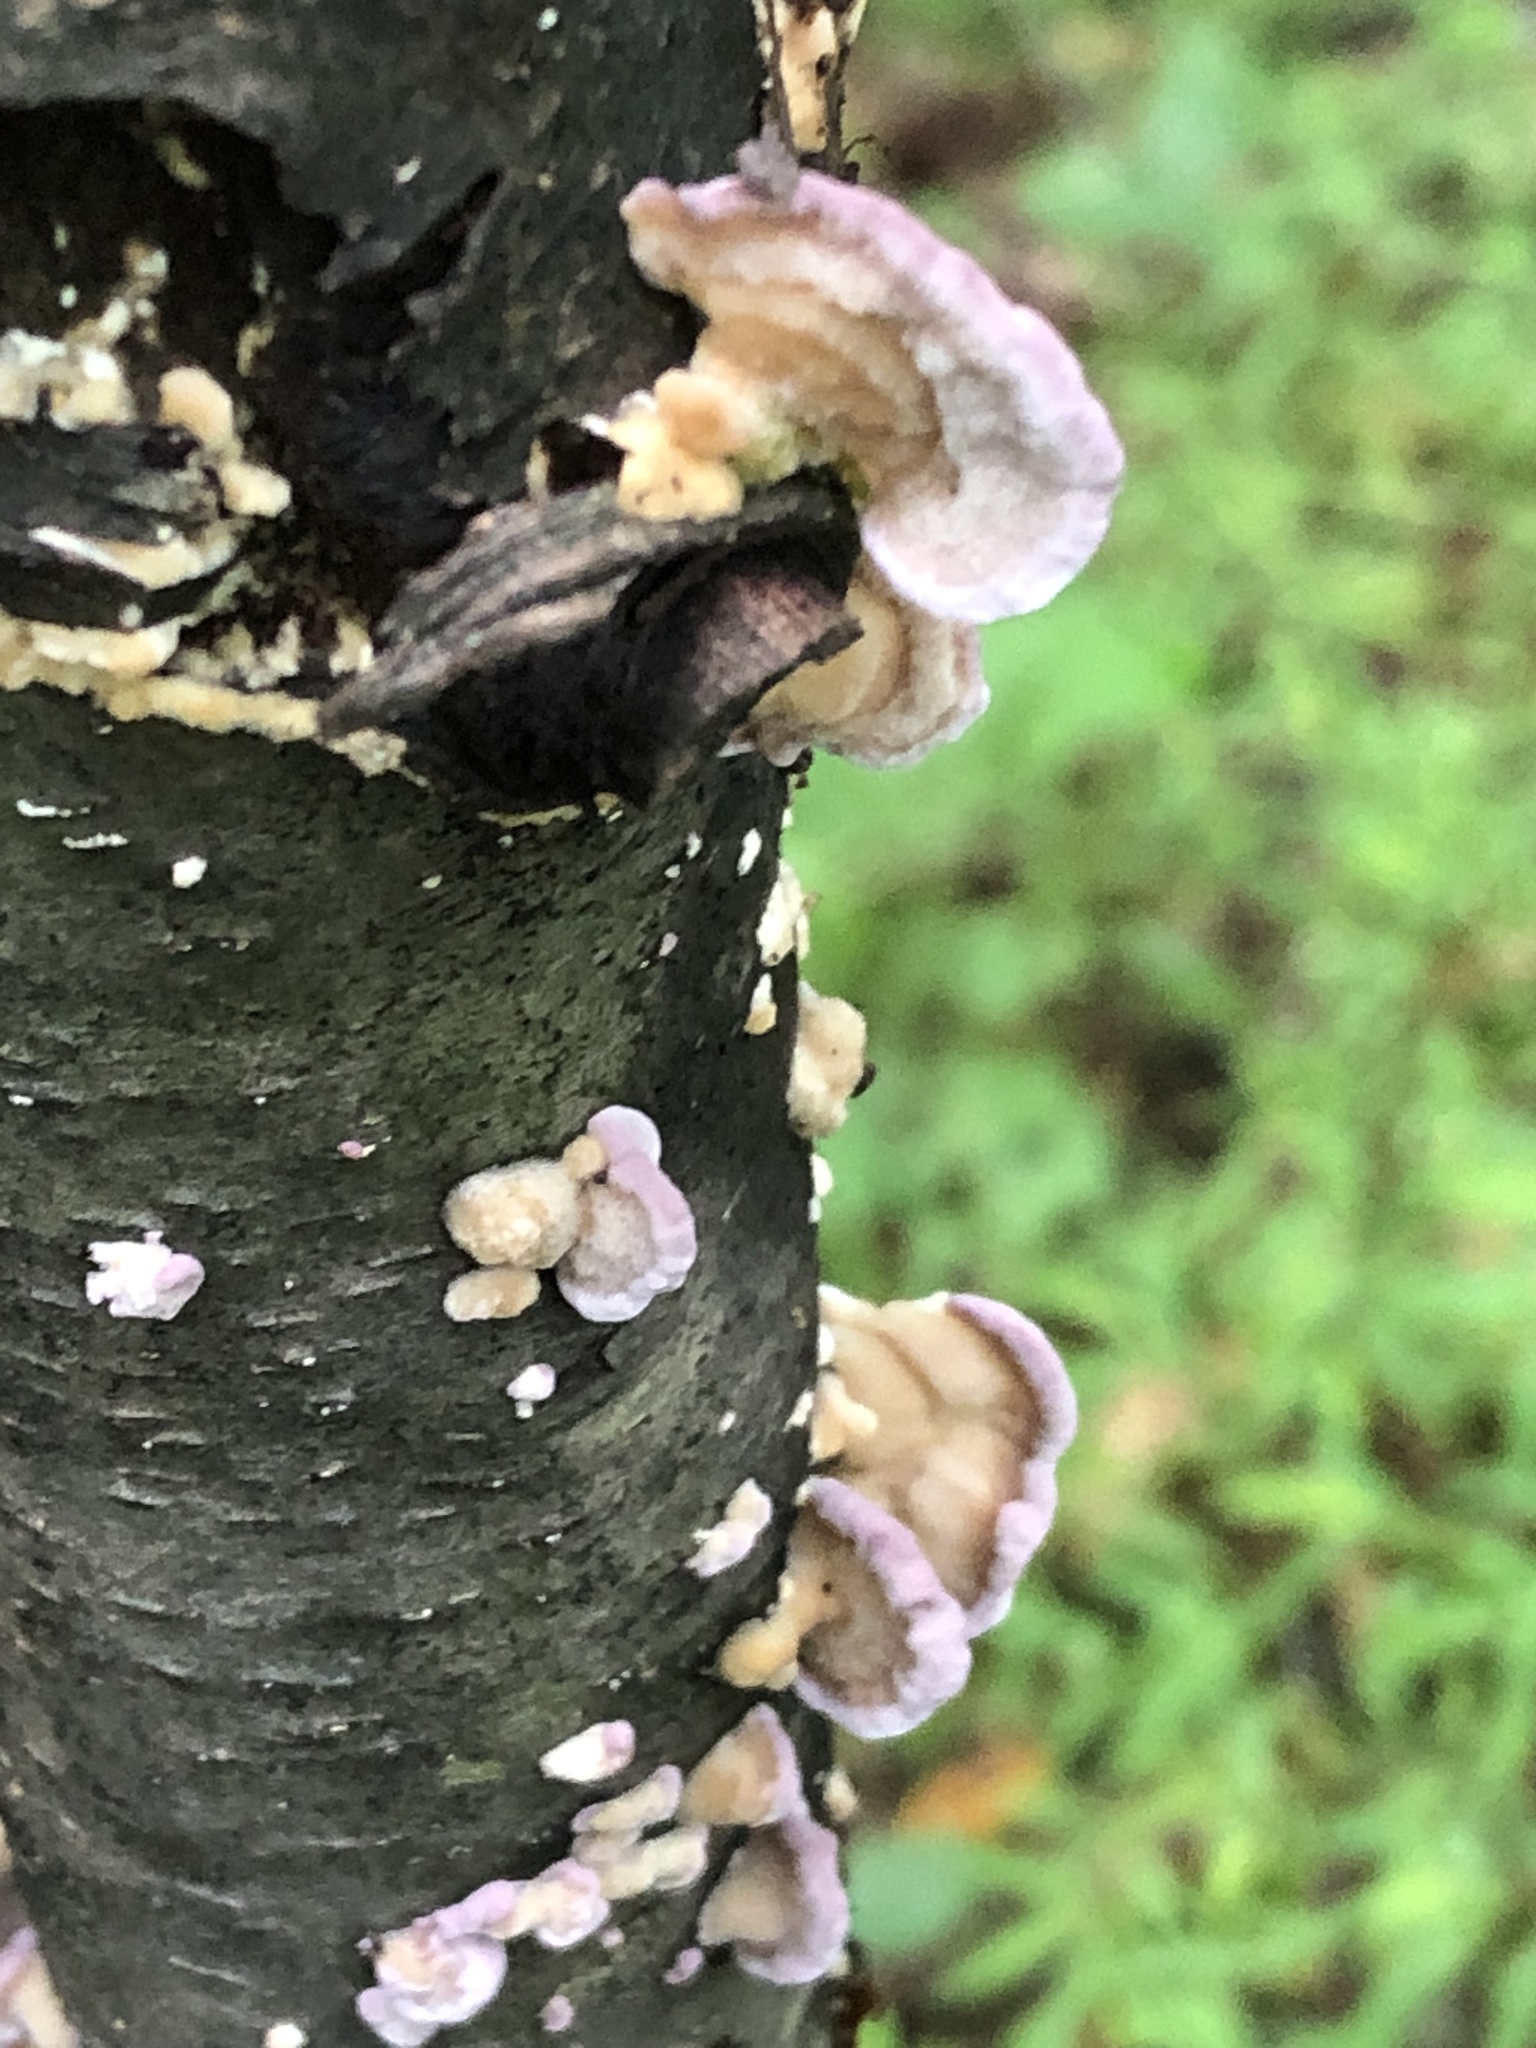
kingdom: Fungi
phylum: Basidiomycota
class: Agaricomycetes
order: Hymenochaetales
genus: Trichaptum
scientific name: Trichaptum biforme
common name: Violet-toothed polypore
